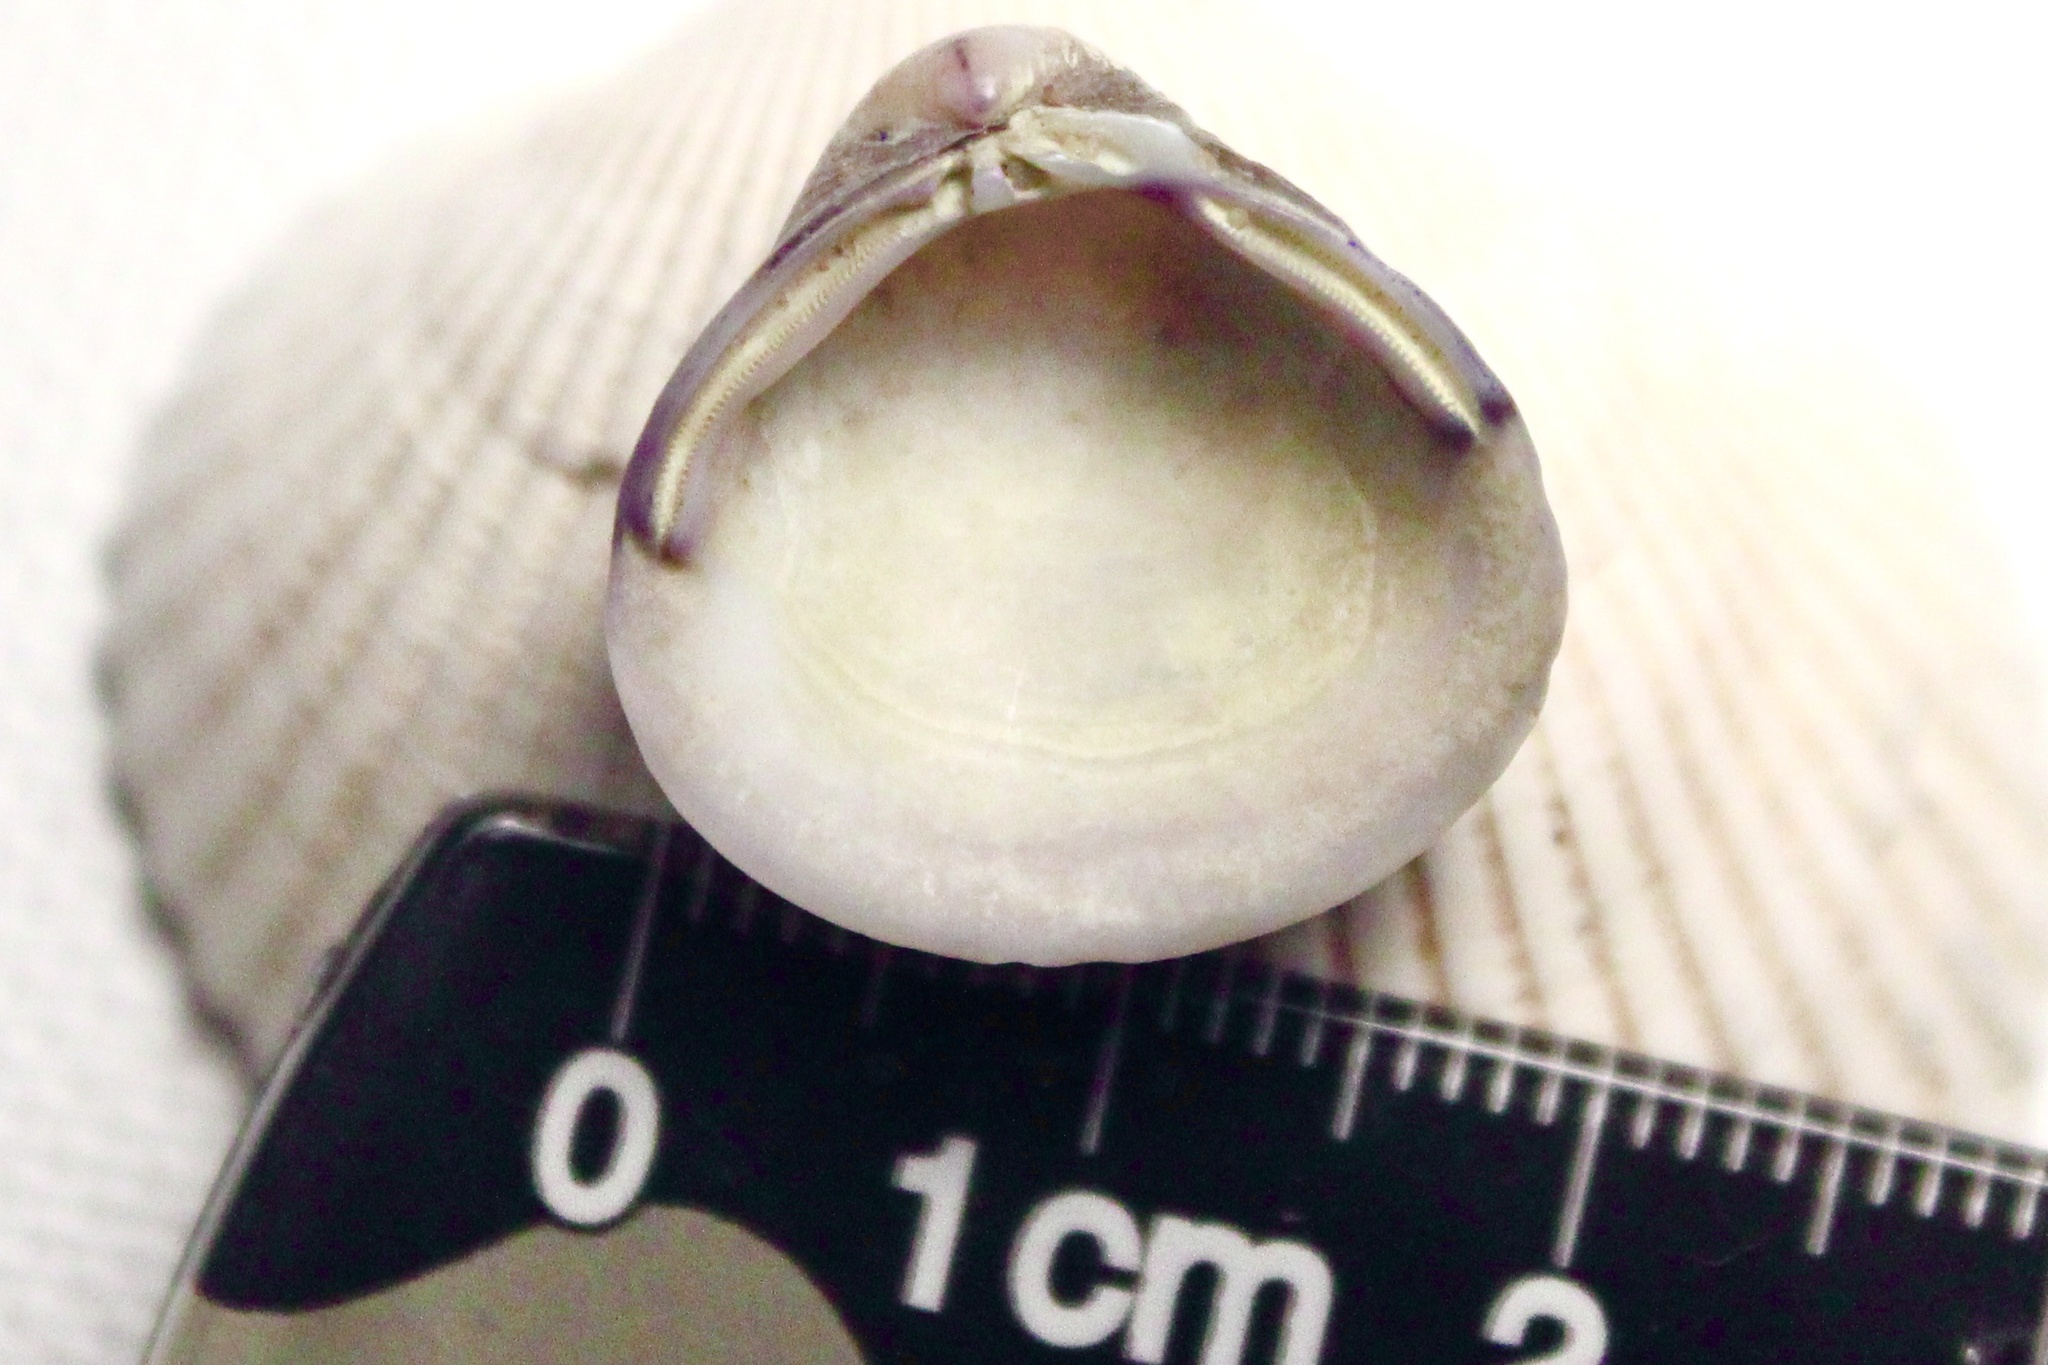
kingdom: Animalia
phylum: Mollusca
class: Bivalvia
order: Venerida
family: Cyrenidae
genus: Corbicula
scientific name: Corbicula
